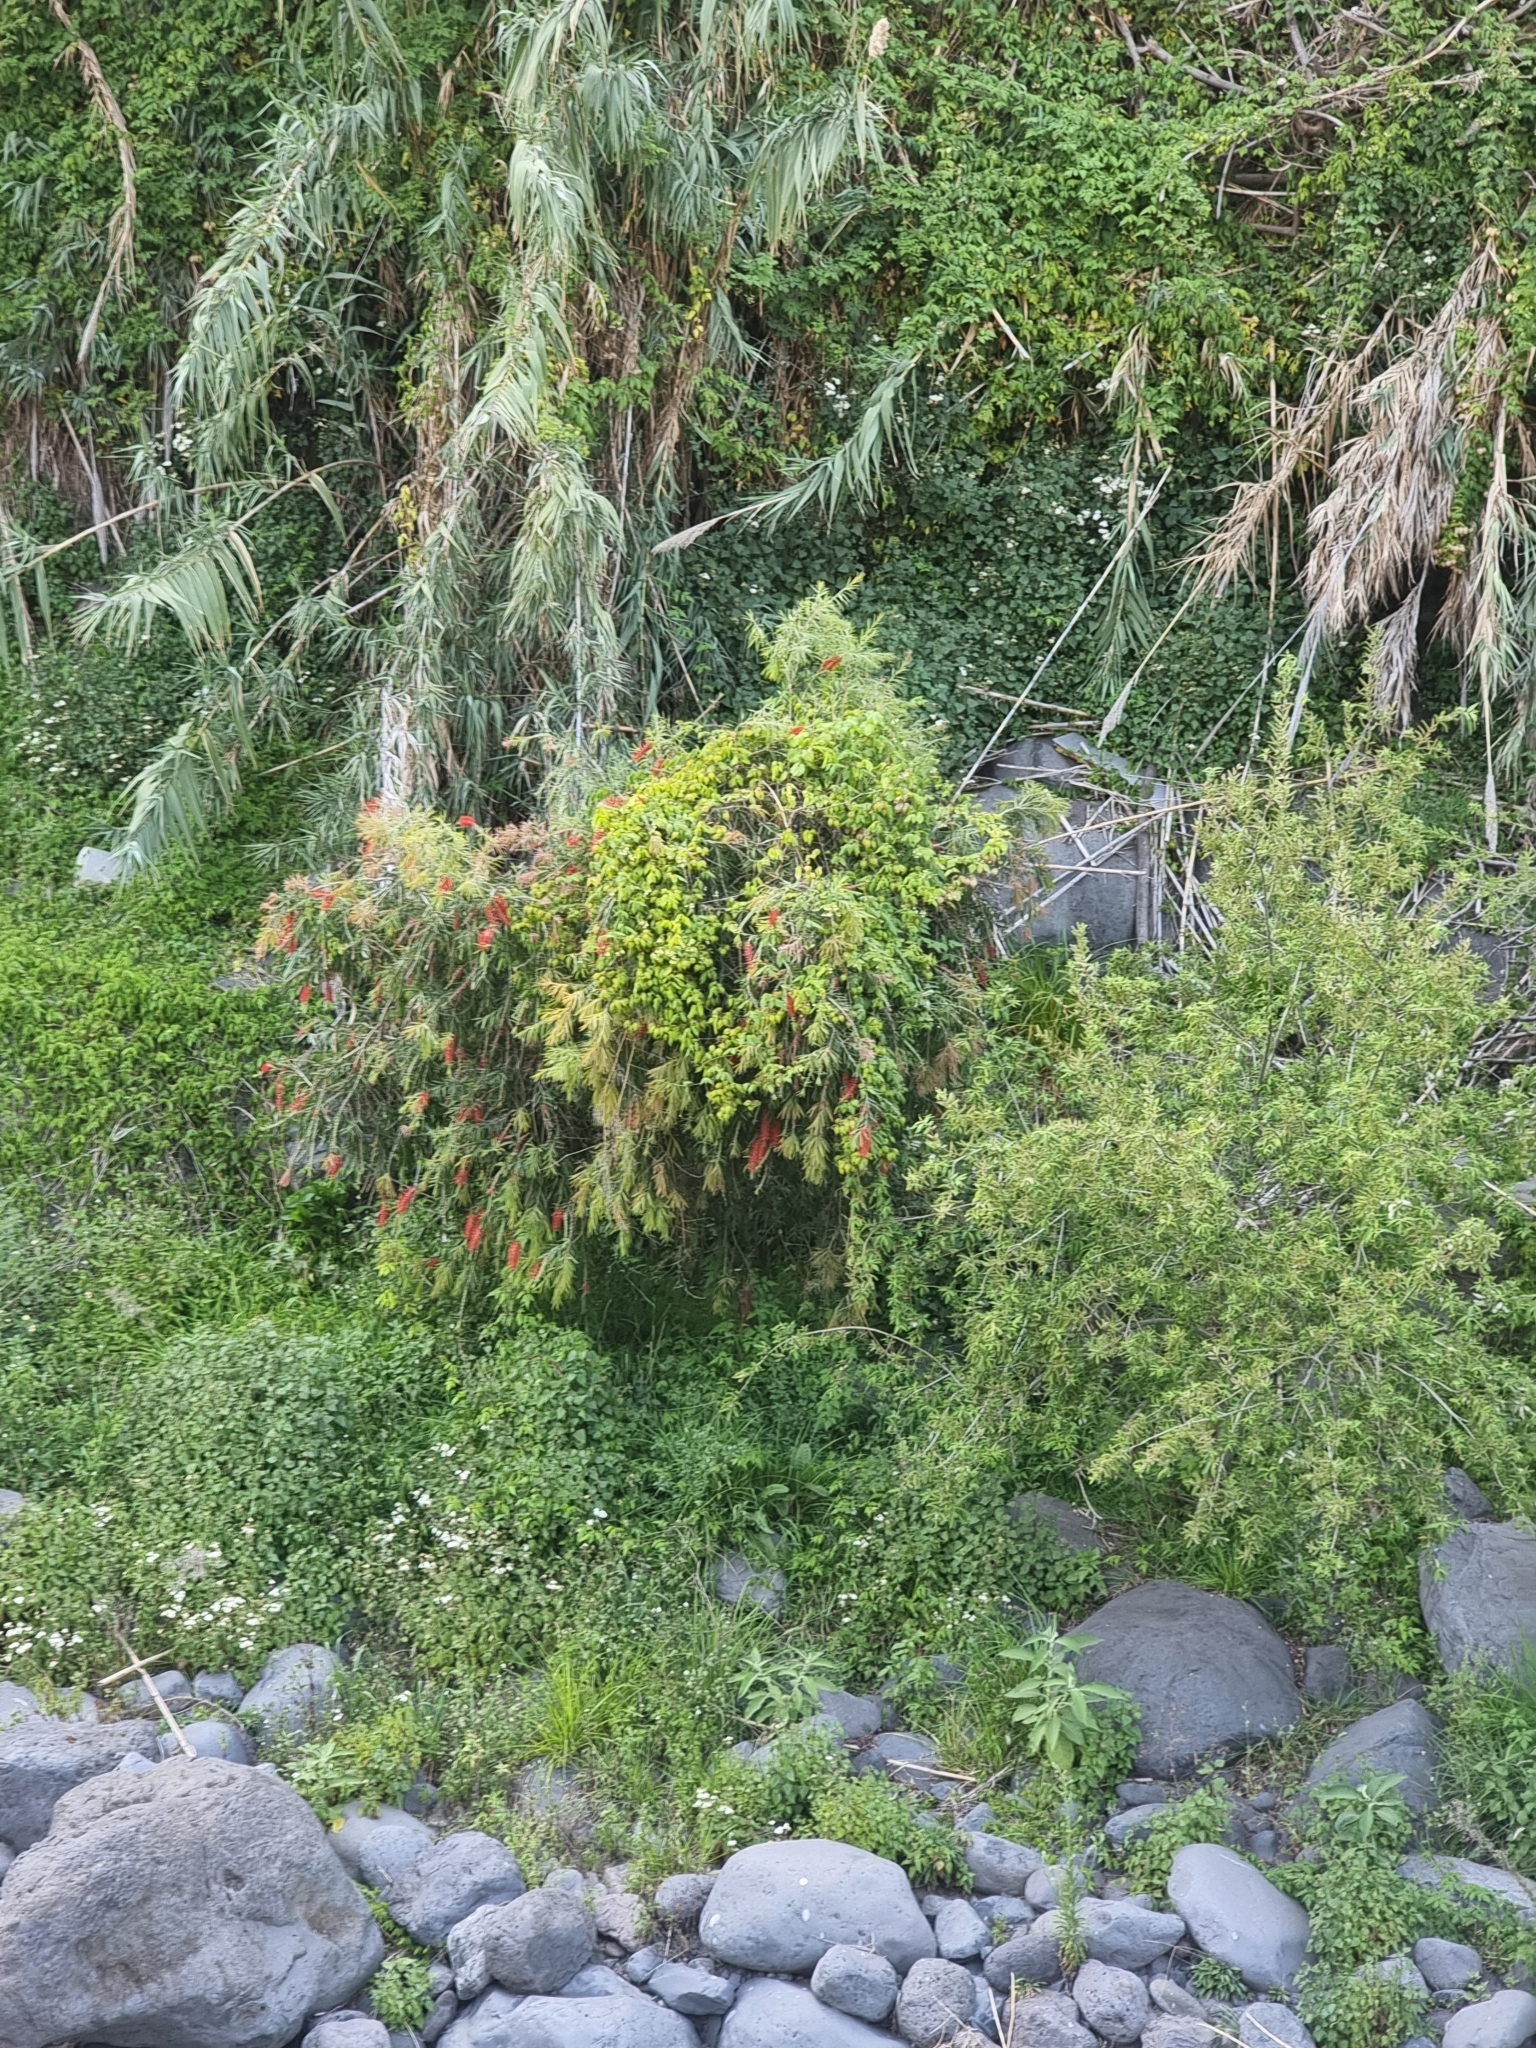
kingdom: Plantae
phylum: Tracheophyta
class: Magnoliopsida
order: Myrtales
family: Myrtaceae
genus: Callistemon
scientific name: Callistemon viminalis
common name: Drooping bottlebrush
